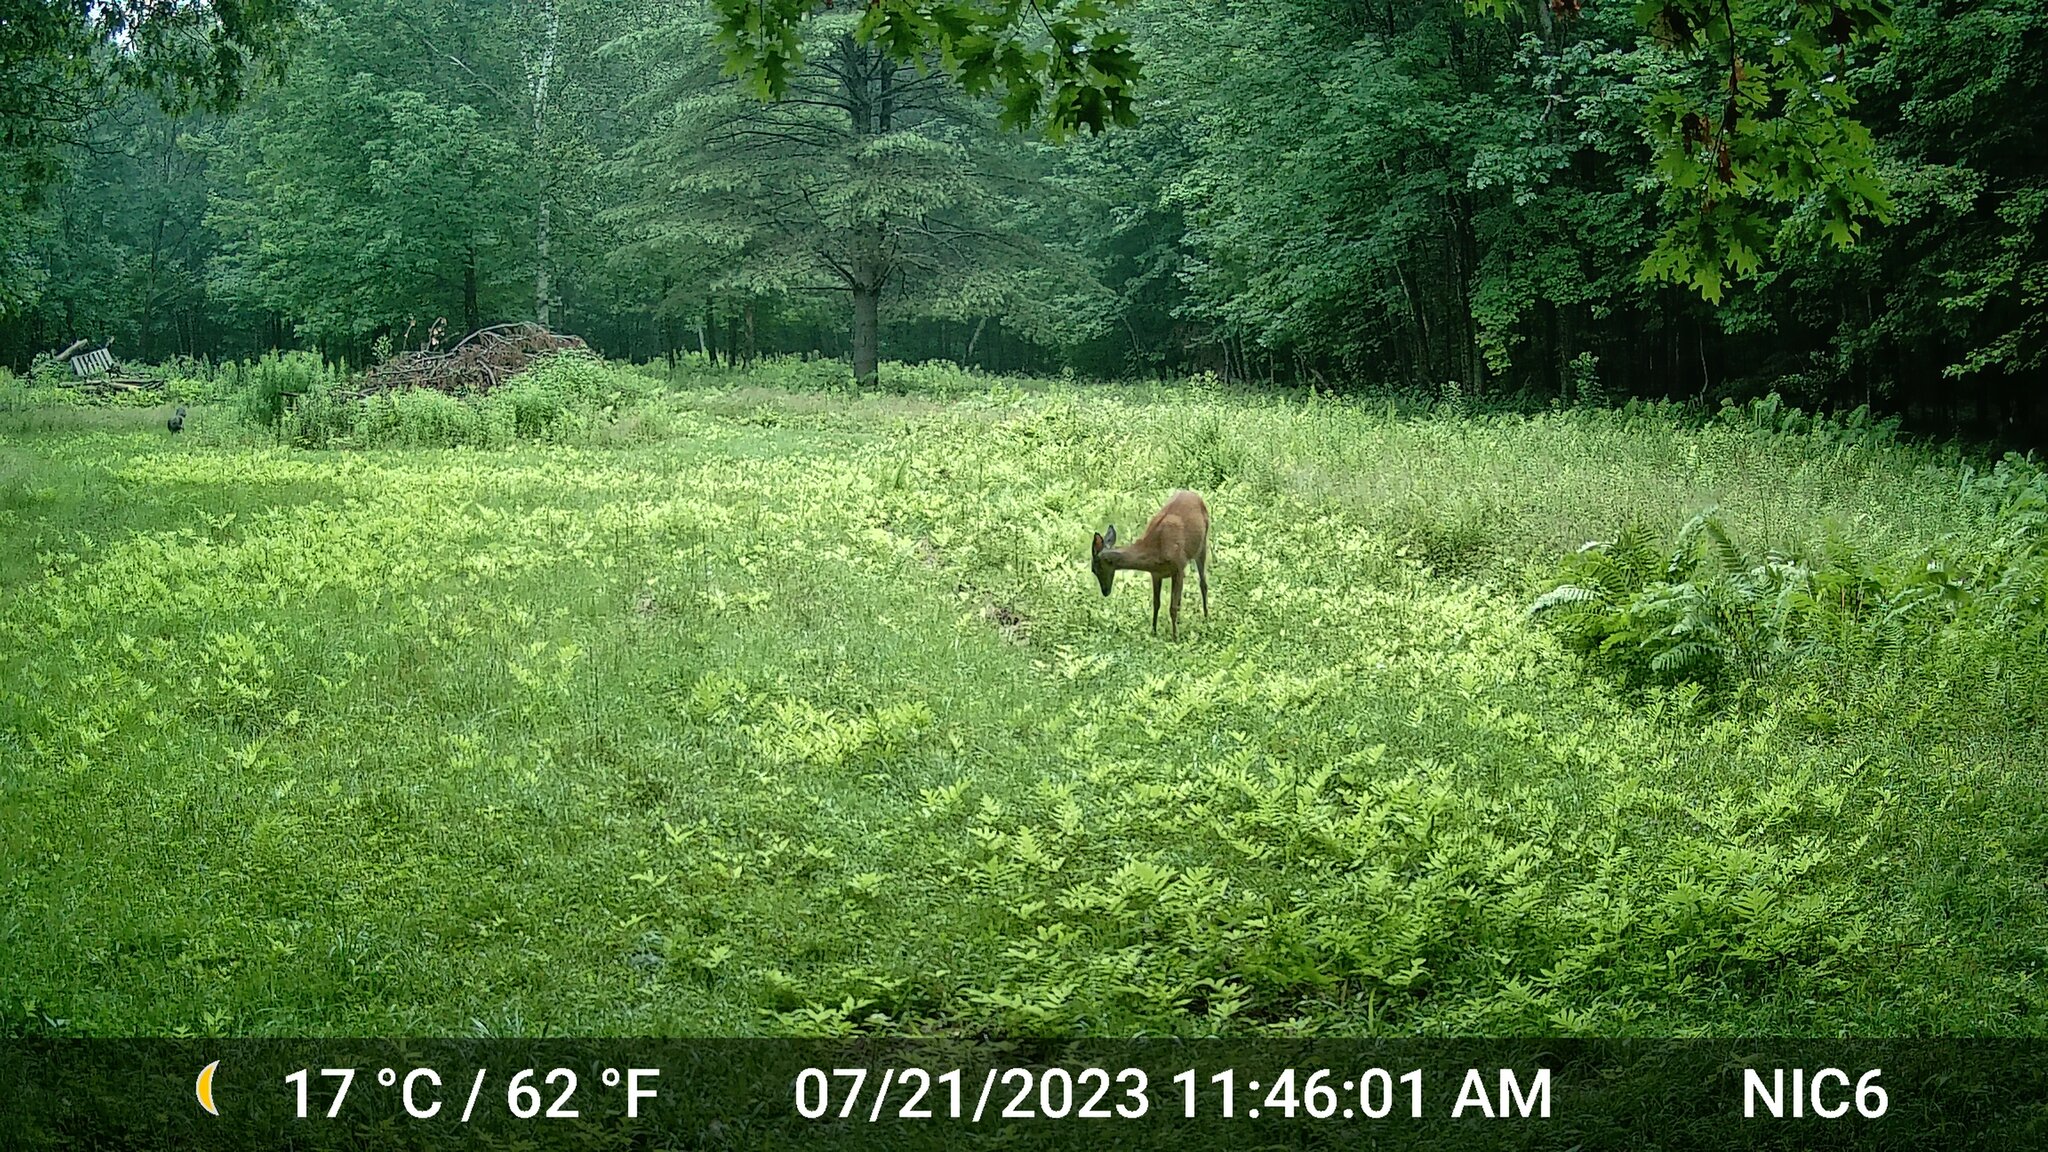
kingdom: Animalia
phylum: Chordata
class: Mammalia
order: Artiodactyla
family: Cervidae
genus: Odocoileus
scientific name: Odocoileus virginianus
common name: White-tailed deer
